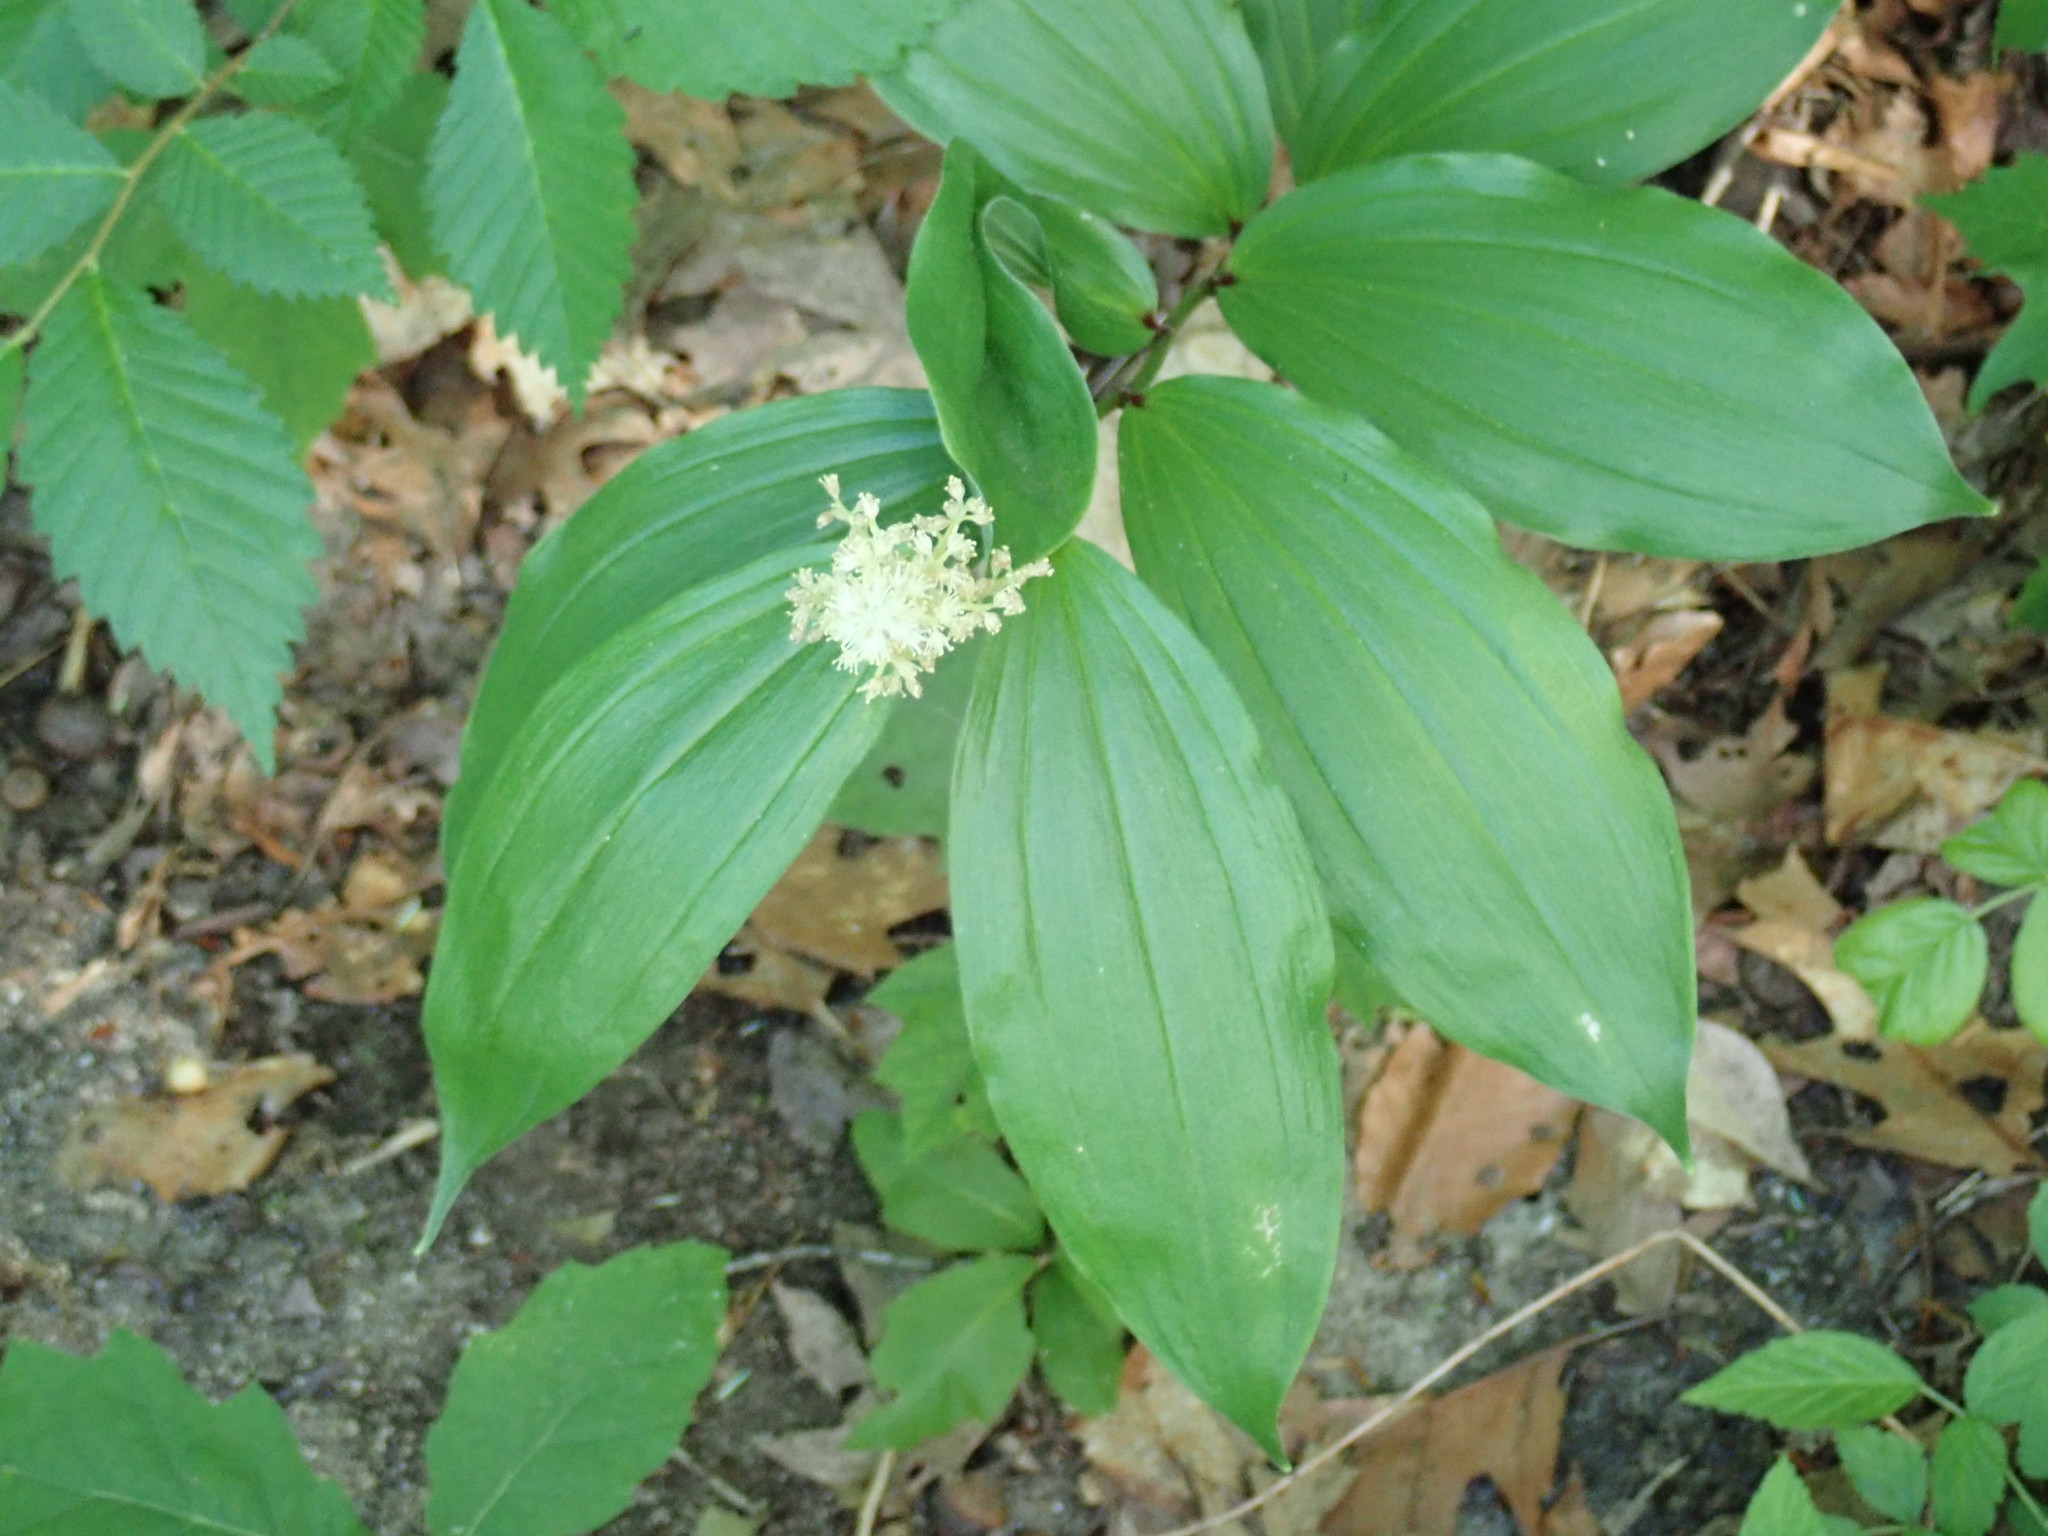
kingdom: Plantae
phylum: Tracheophyta
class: Liliopsida
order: Asparagales
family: Asparagaceae
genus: Maianthemum
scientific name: Maianthemum racemosum
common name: False spikenard
